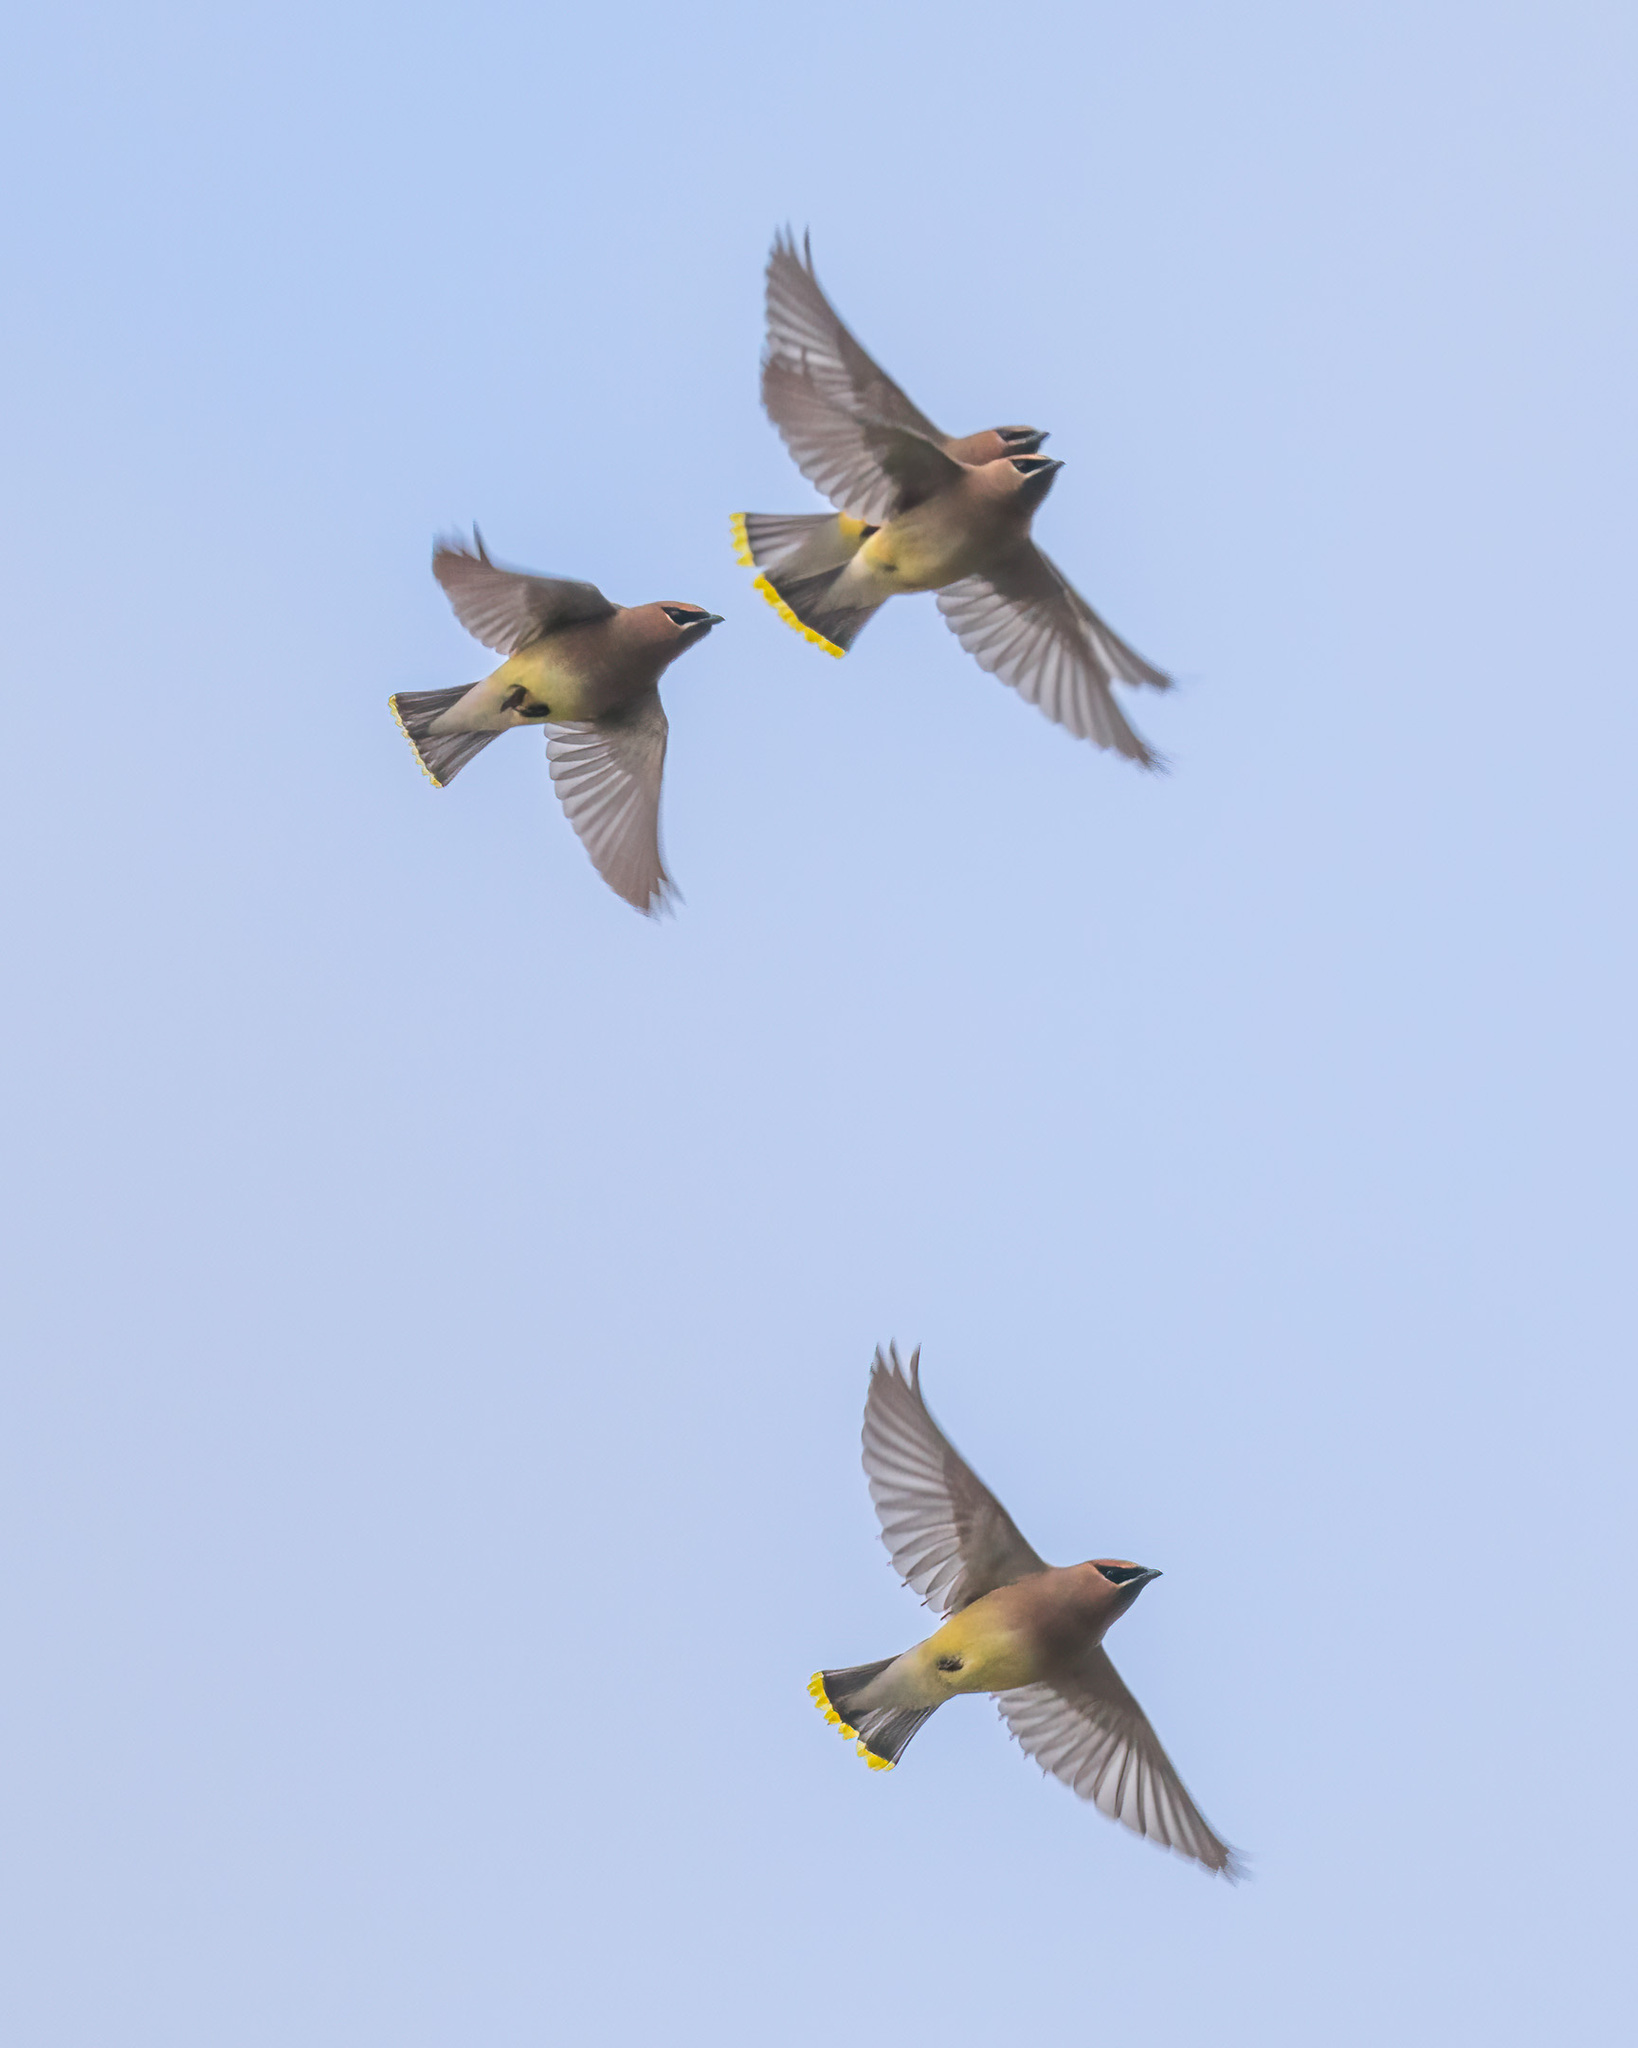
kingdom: Animalia
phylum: Chordata
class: Aves
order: Passeriformes
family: Bombycillidae
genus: Bombycilla
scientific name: Bombycilla cedrorum
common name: Cedar waxwing
